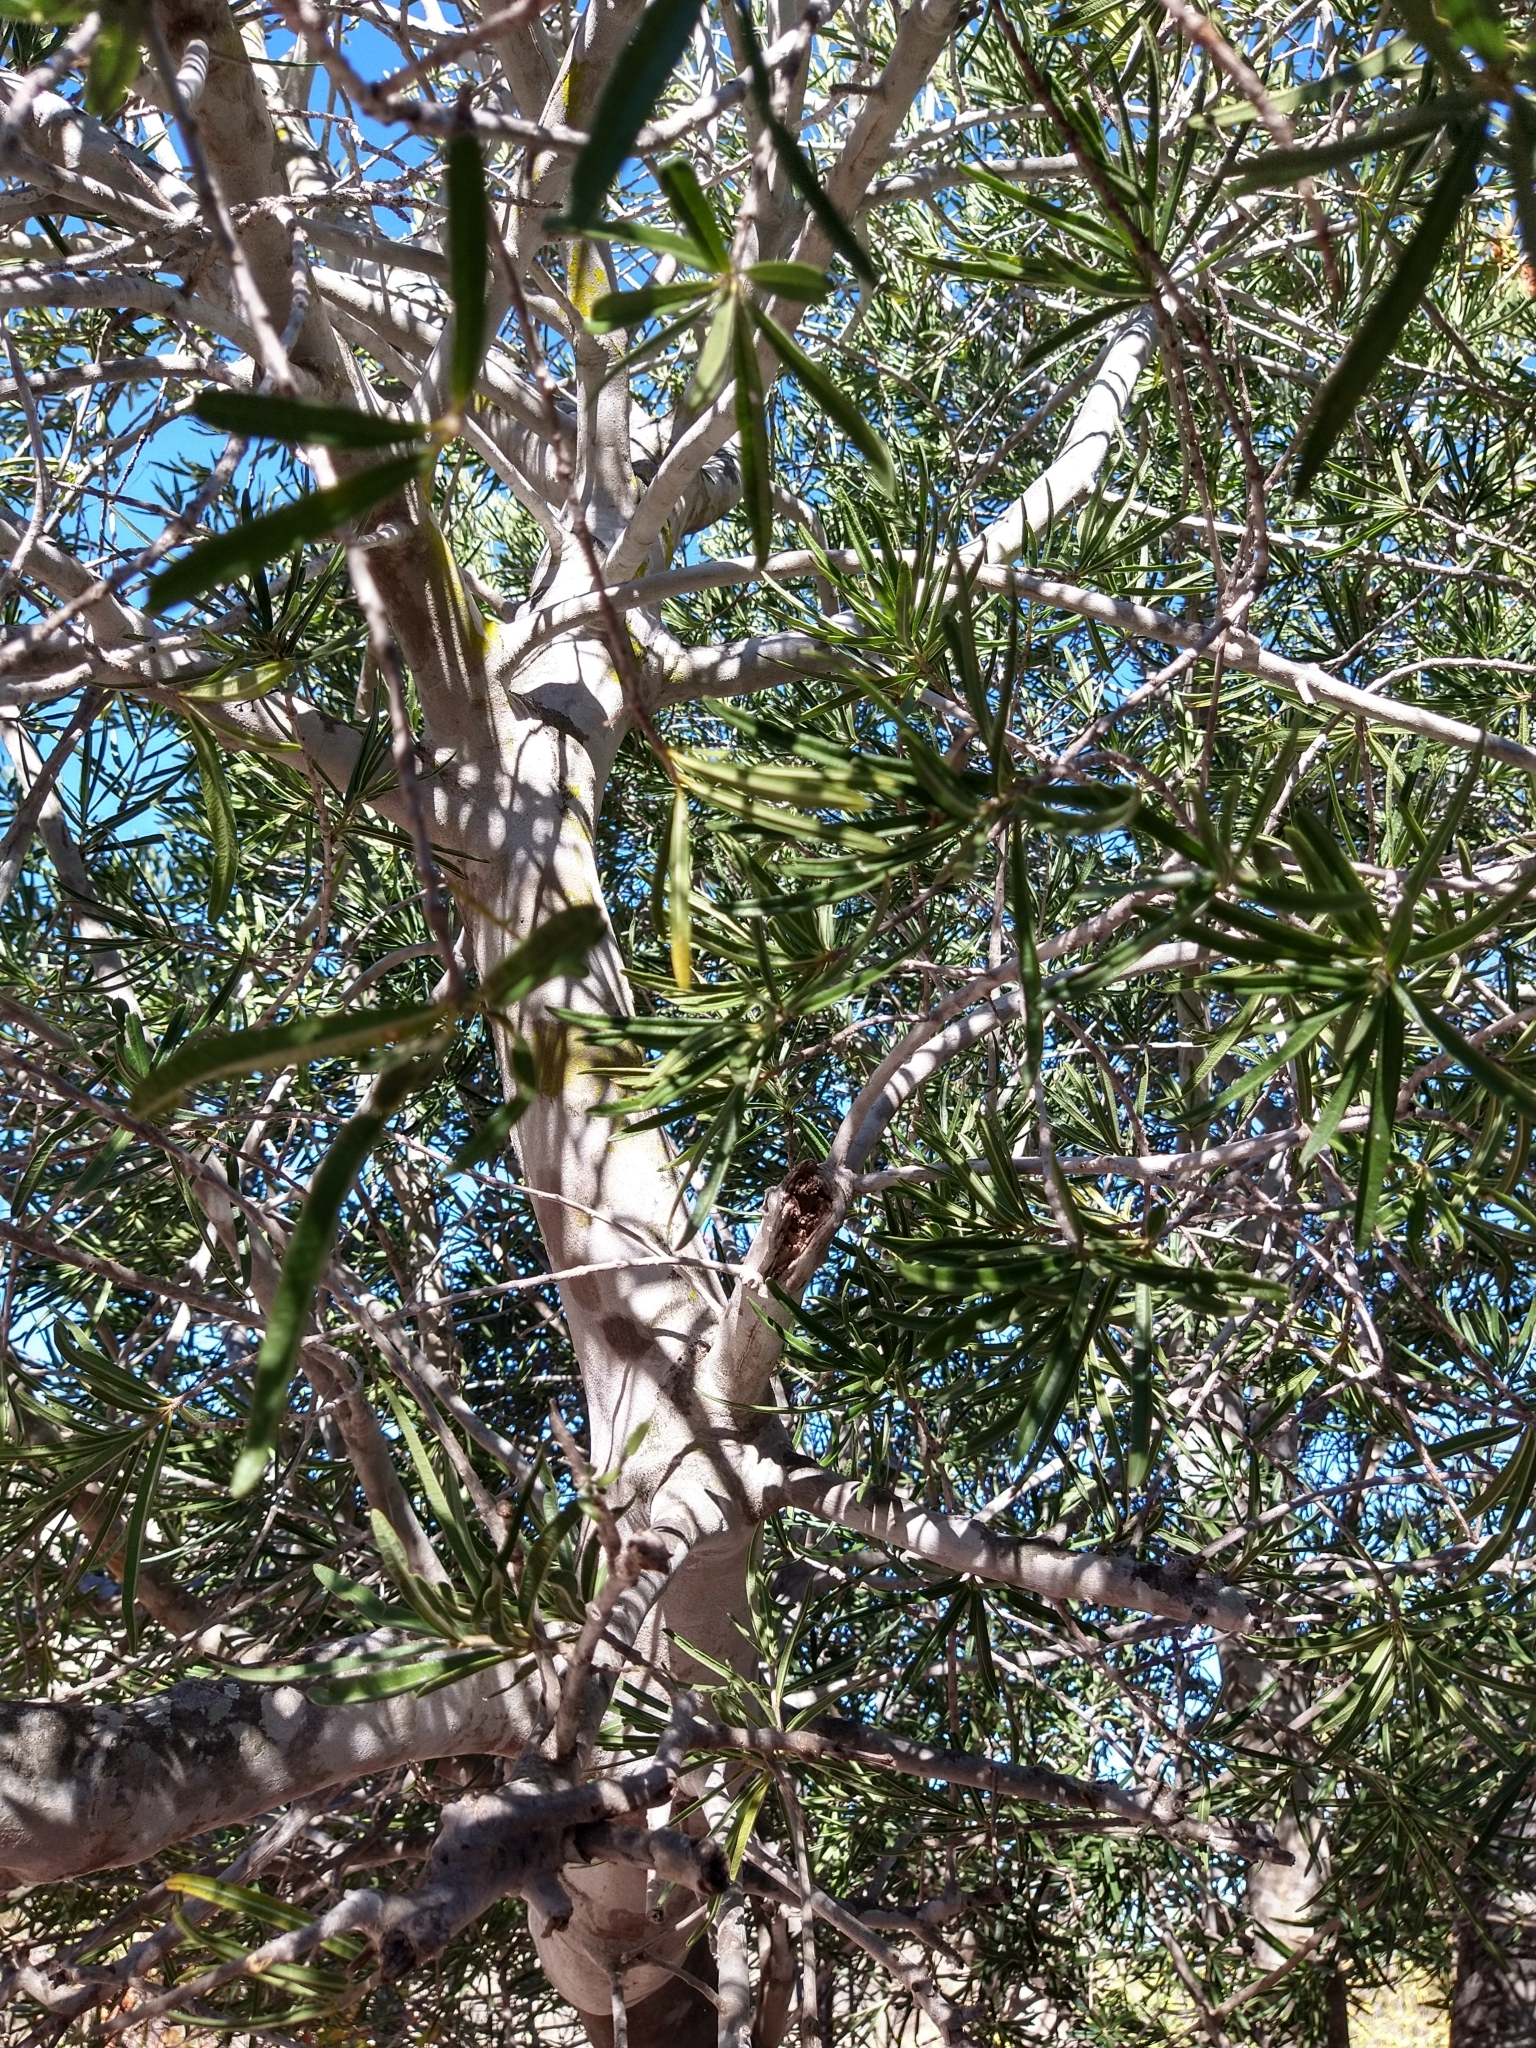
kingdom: Plantae
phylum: Tracheophyta
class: Magnoliopsida
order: Brassicales
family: Stixaceae
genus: Forchhammeria
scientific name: Forchhammeria watsonii
